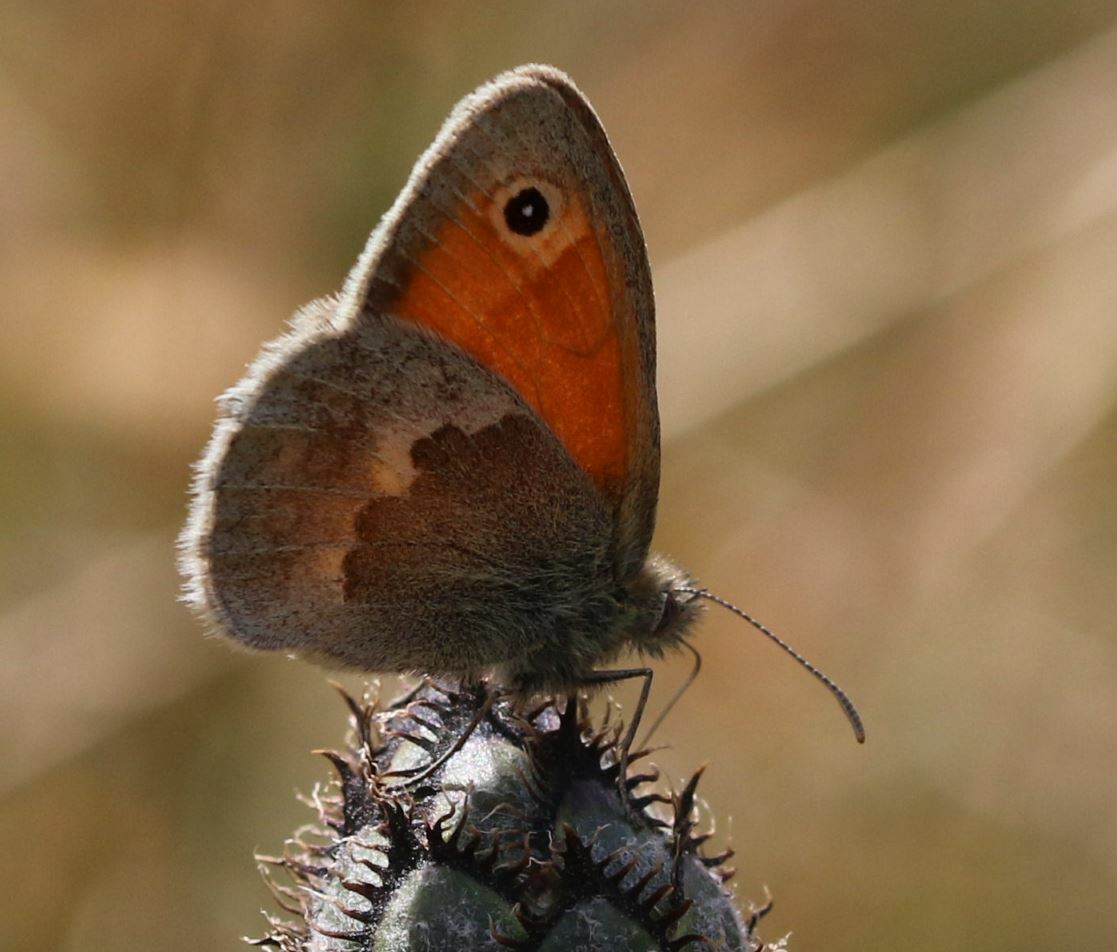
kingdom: Animalia
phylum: Arthropoda
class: Insecta
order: Lepidoptera
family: Nymphalidae
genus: Coenonympha
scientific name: Coenonympha pamphilus
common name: Small heath
